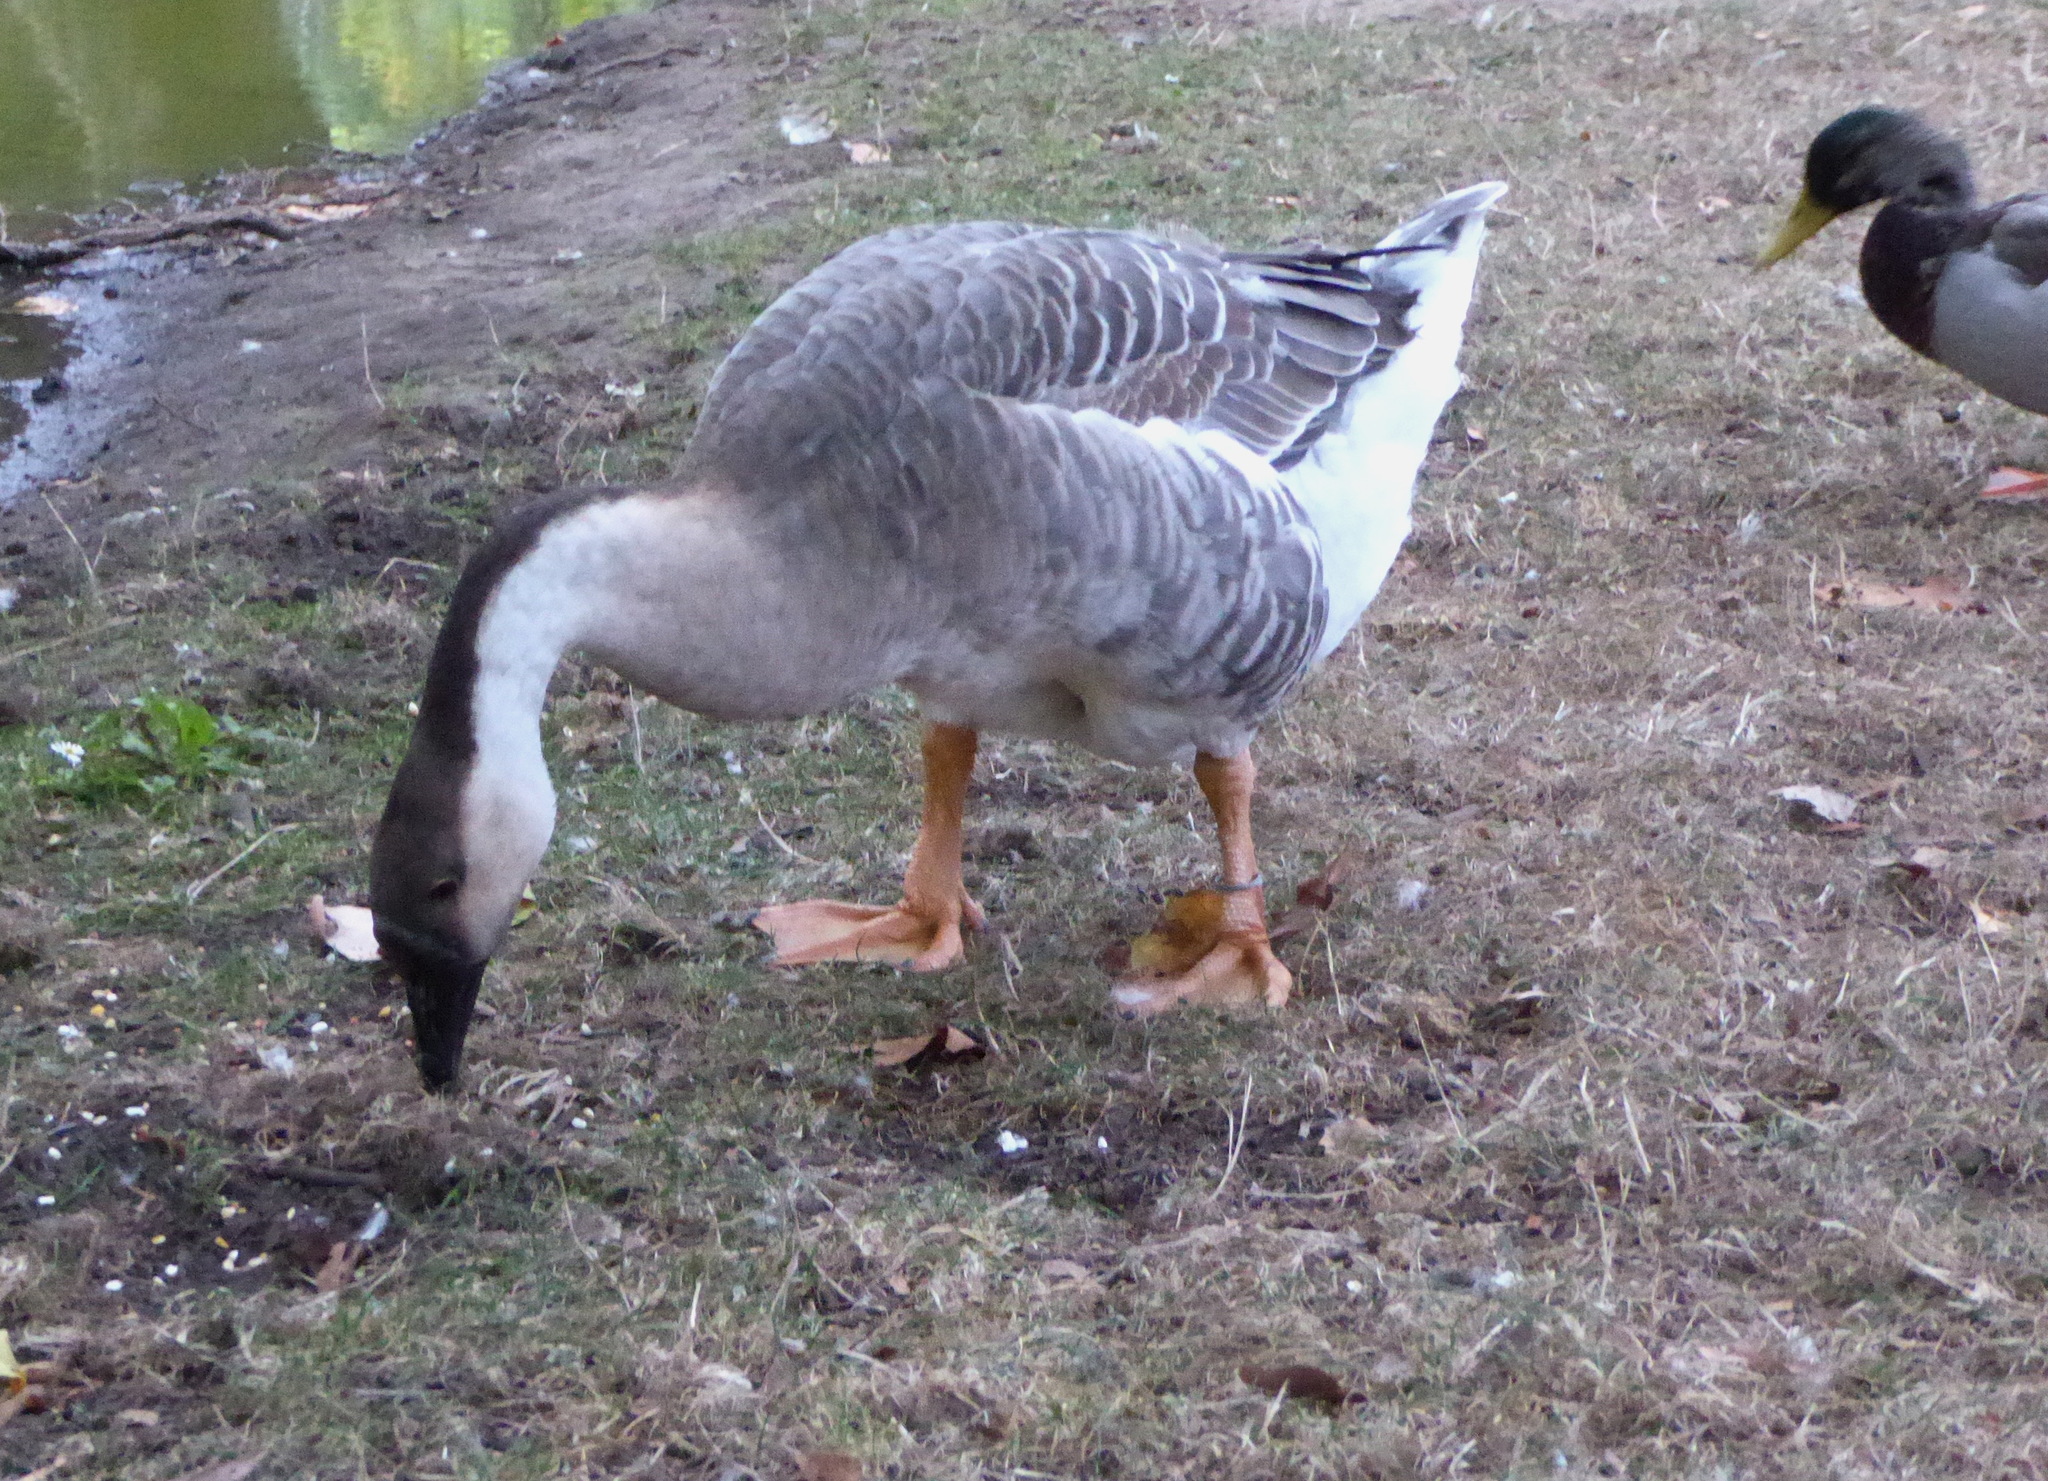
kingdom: Animalia
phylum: Chordata
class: Aves
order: Anseriformes
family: Anatidae
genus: Anser
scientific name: Anser cygnoides
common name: Swan goose
